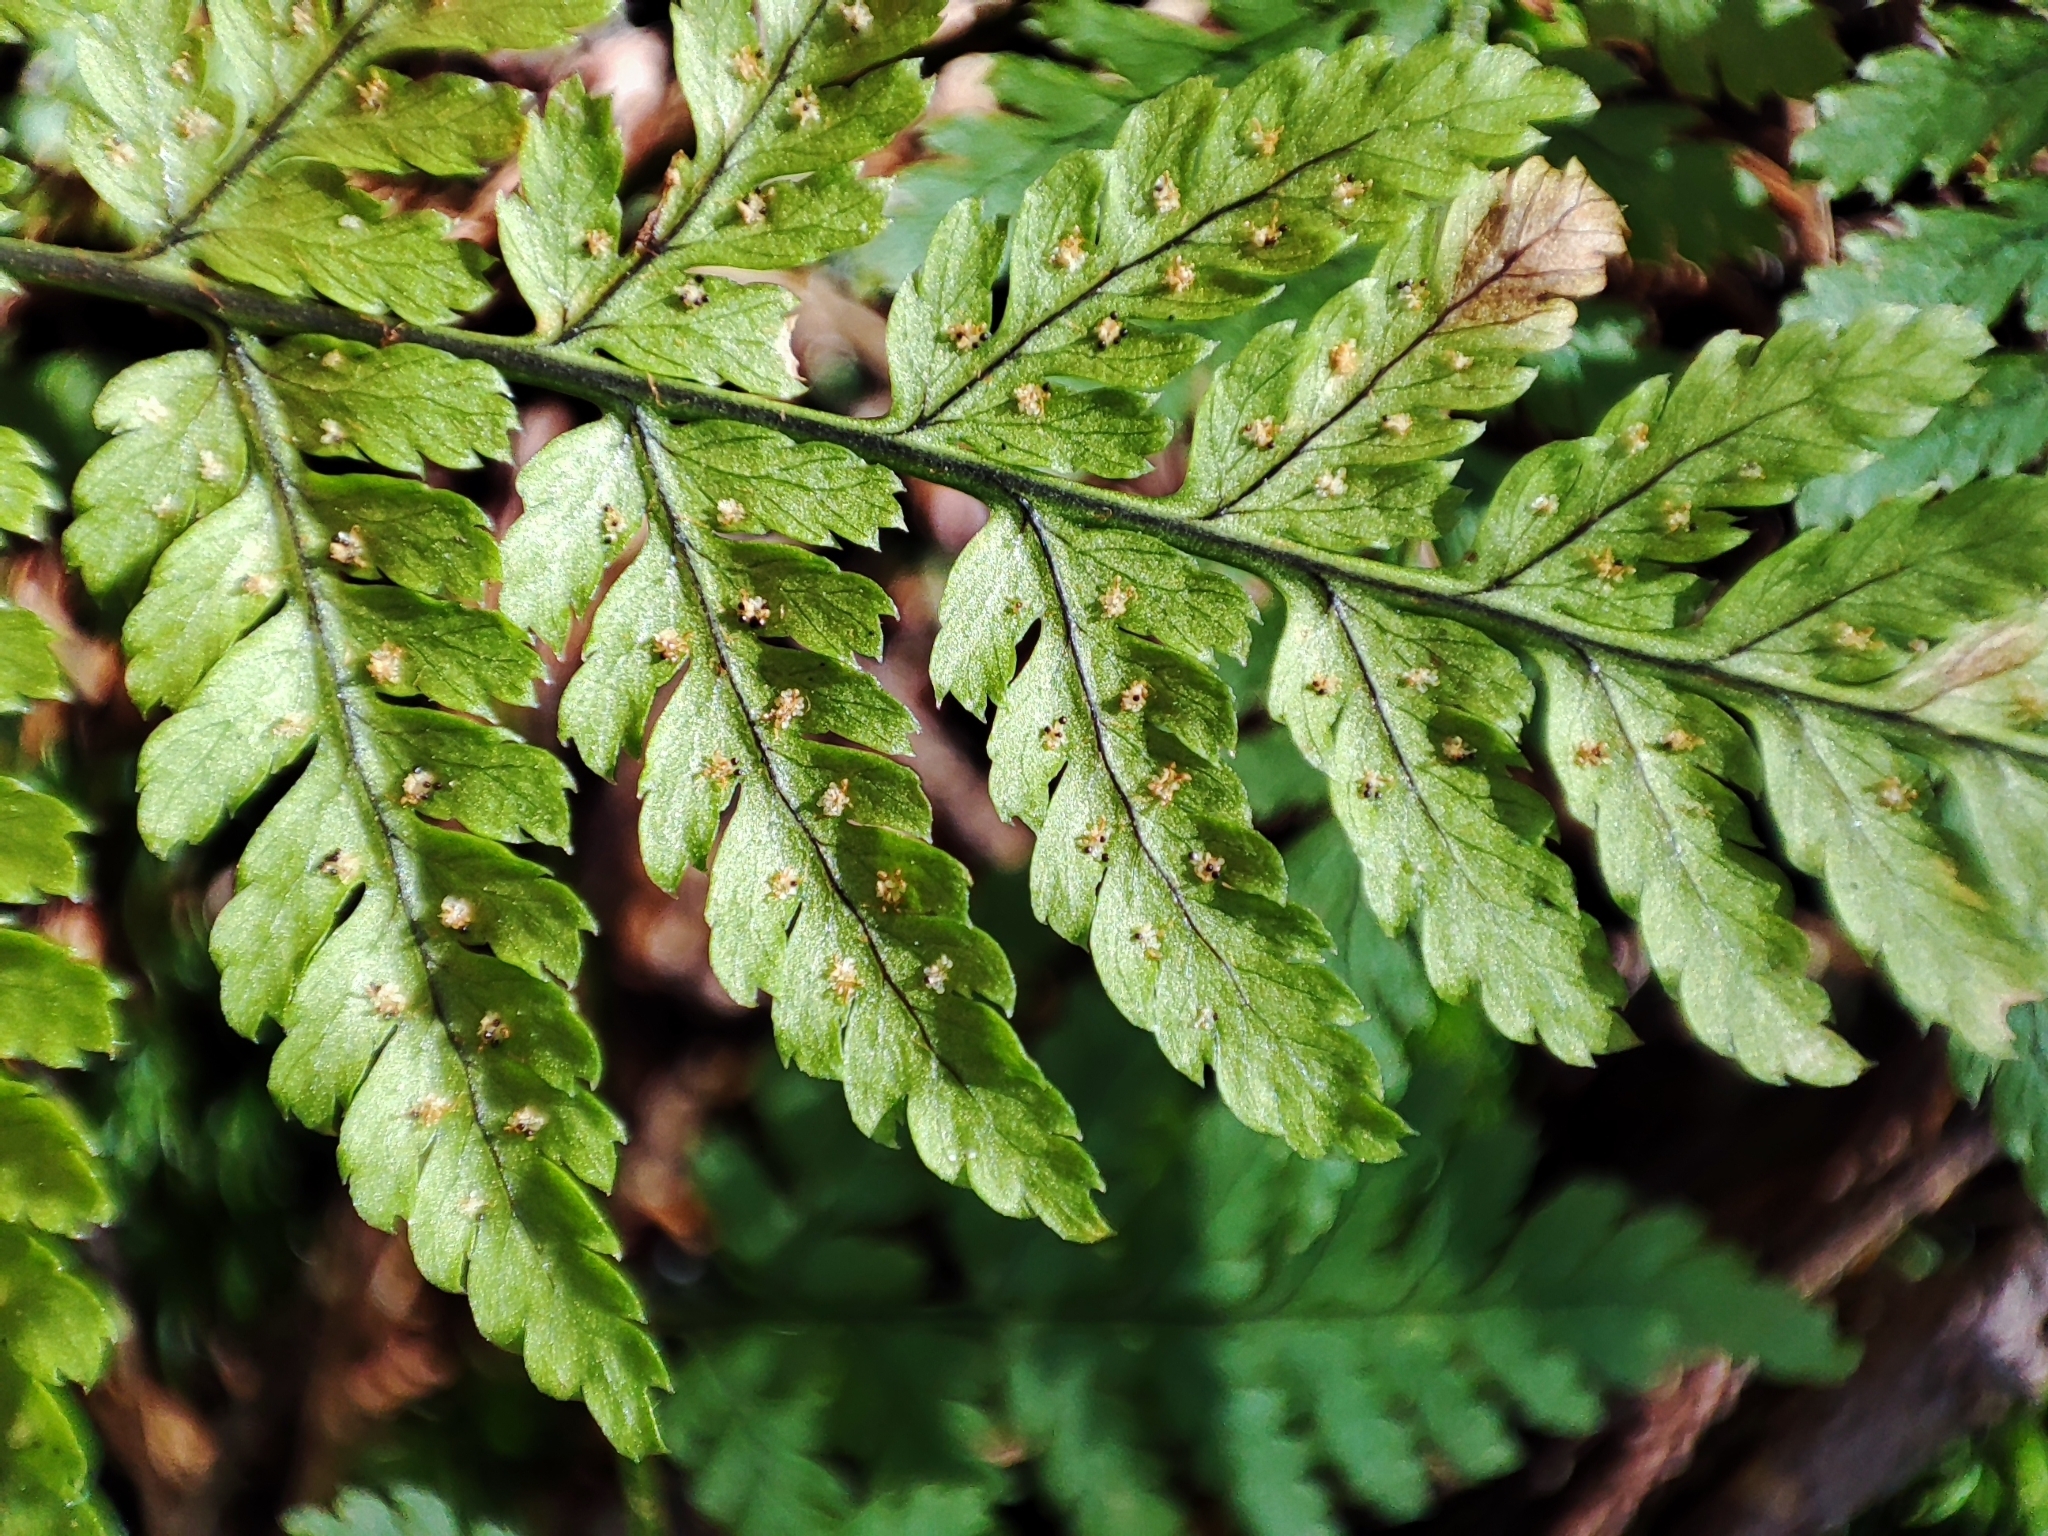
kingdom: Plantae
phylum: Tracheophyta
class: Polypodiopsida
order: Polypodiales
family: Dryopteridaceae
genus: Dryopteris
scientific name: Dryopteris carthusiana
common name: Narrow buckler-fern
